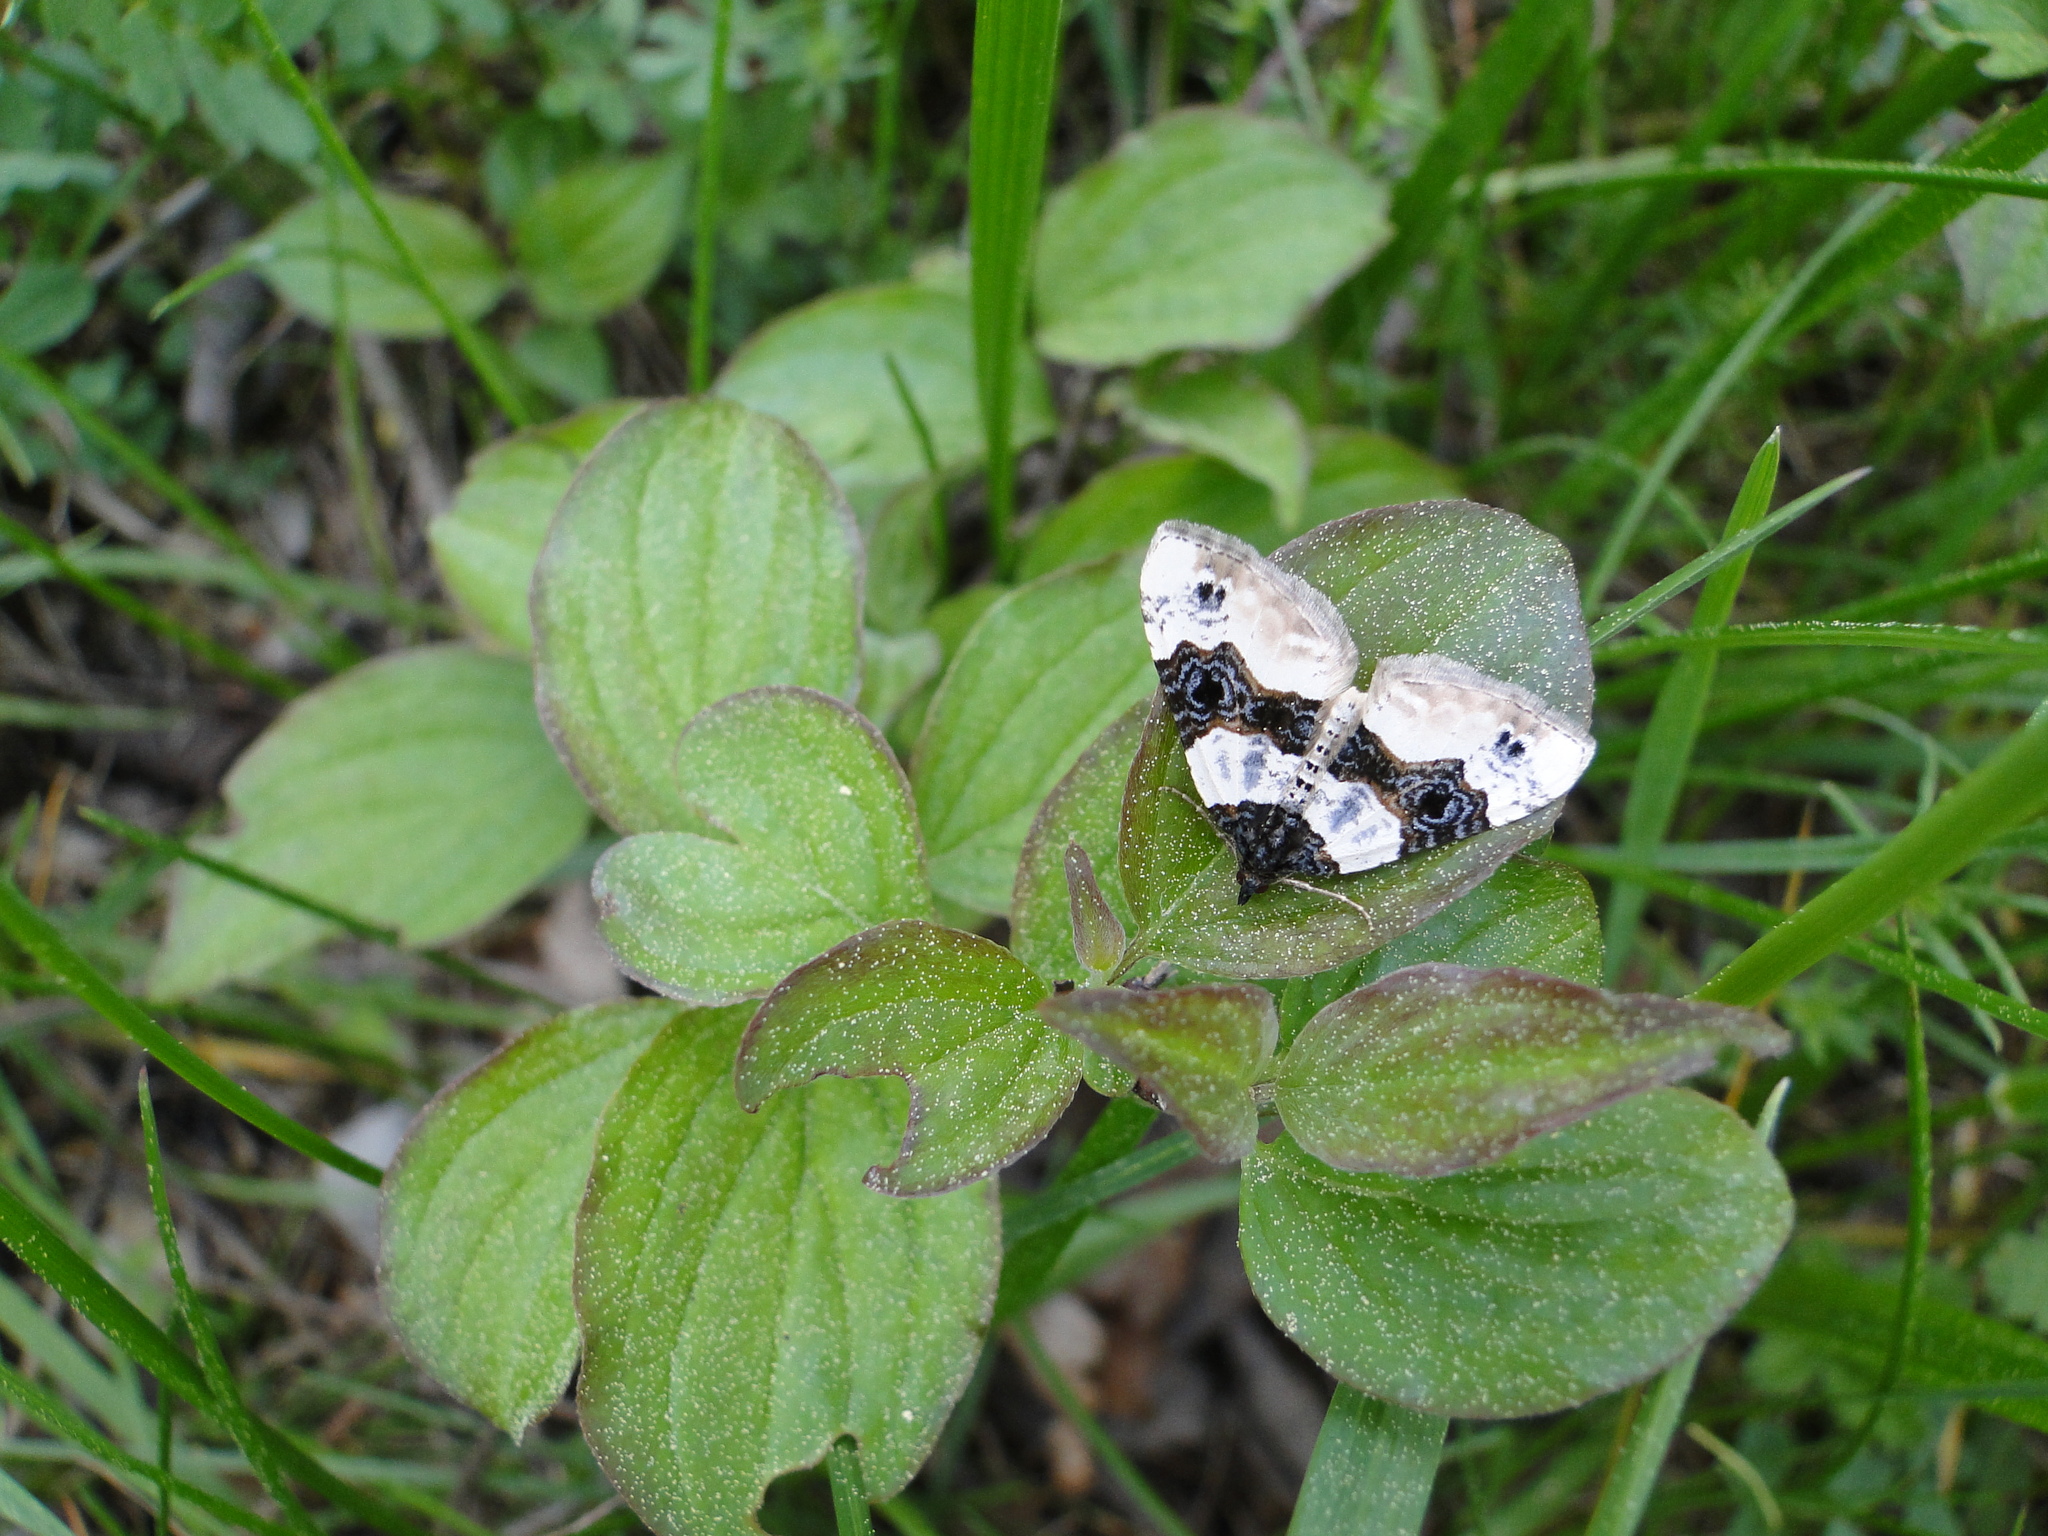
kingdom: Animalia
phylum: Arthropoda
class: Insecta
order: Lepidoptera
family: Geometridae
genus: Cosmorhoe
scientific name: Cosmorhoe ocellata
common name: Purple bar
